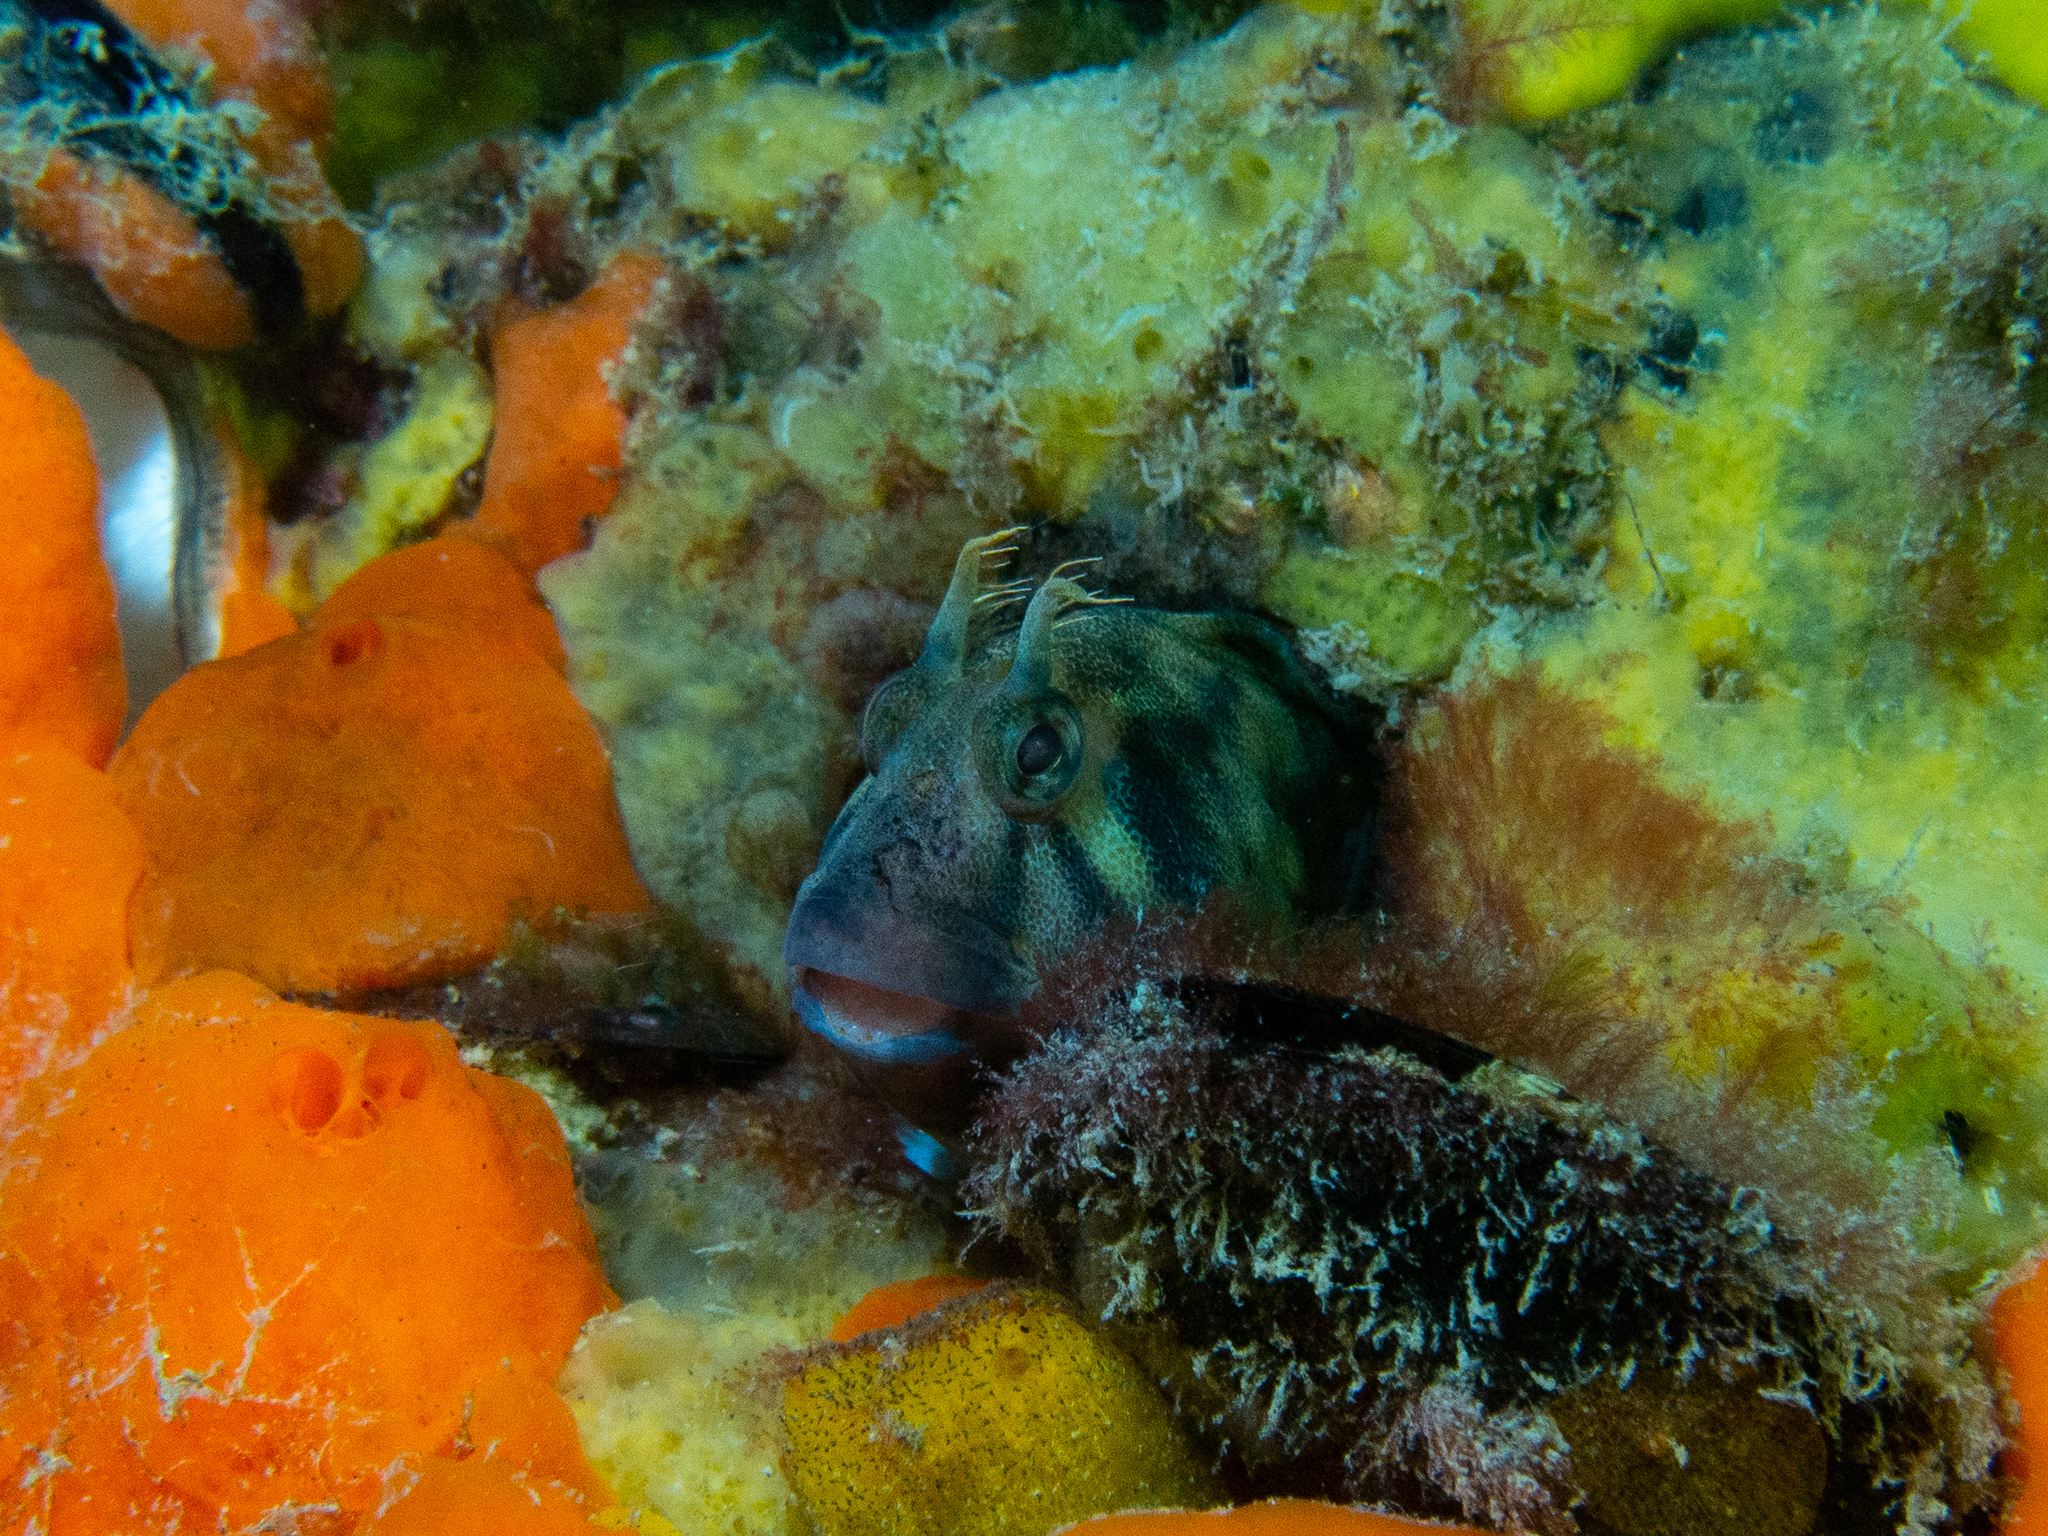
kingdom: Animalia
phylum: Chordata
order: Perciformes
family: Blenniidae
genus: Parablennius
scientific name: Parablennius tasmanianus
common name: Tasmanian blenny
